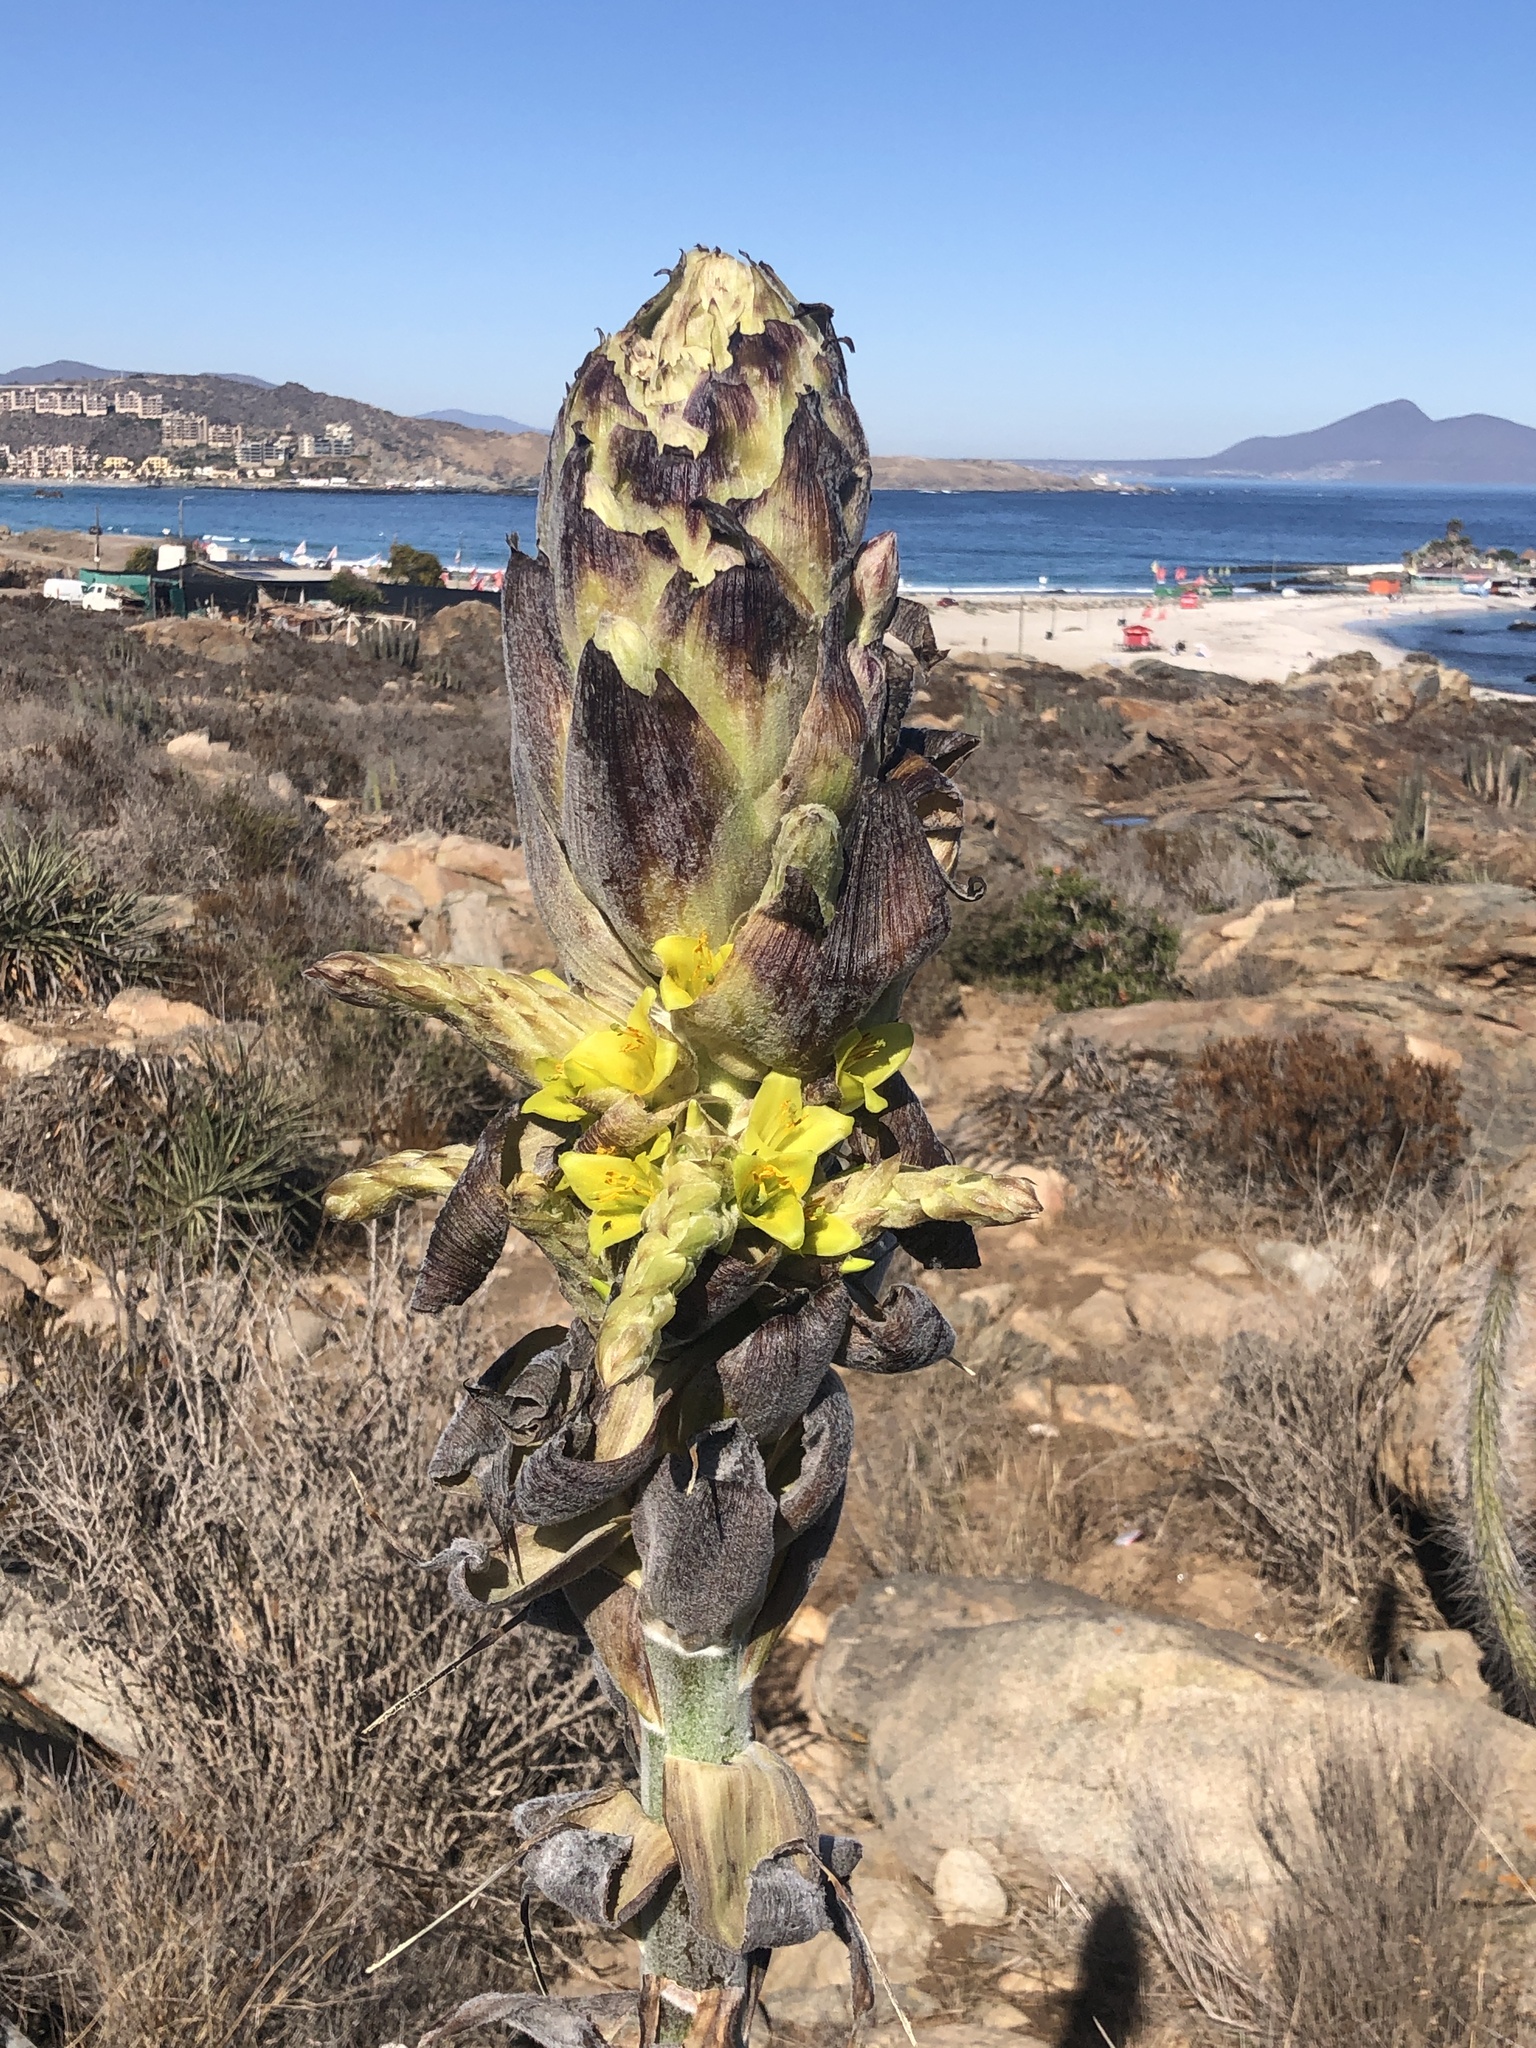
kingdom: Plantae
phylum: Tracheophyta
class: Liliopsida
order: Poales
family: Bromeliaceae
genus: Puya
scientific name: Puya chilensis
